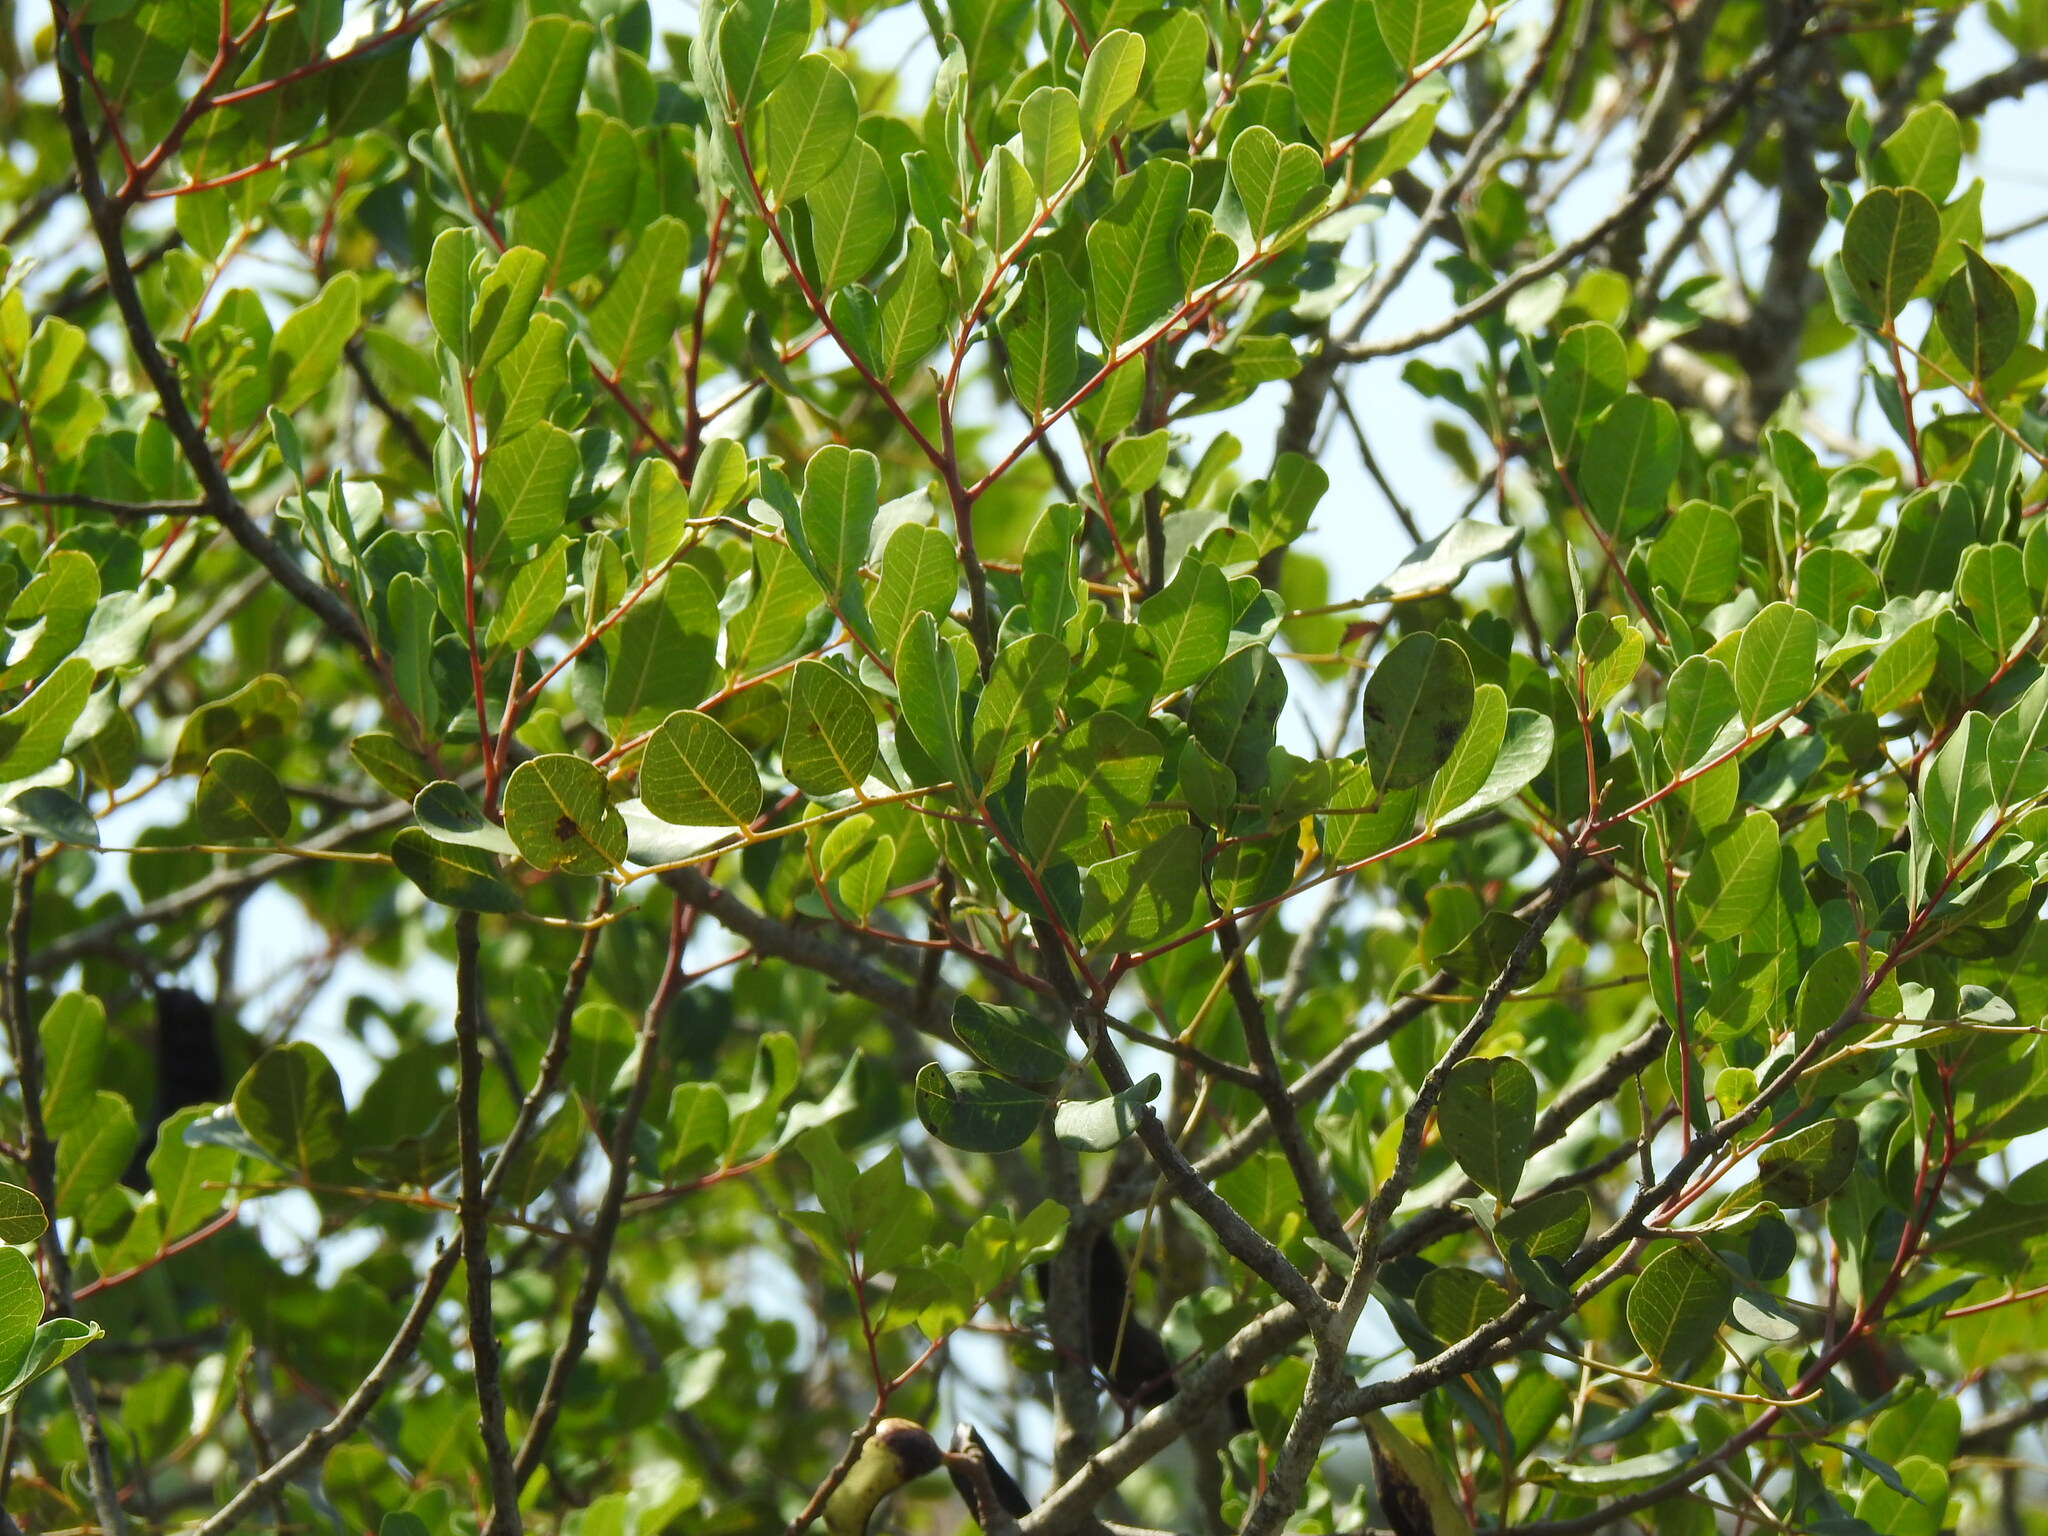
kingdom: Plantae
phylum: Tracheophyta
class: Magnoliopsida
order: Fabales
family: Fabaceae
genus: Ceratonia
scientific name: Ceratonia siliqua
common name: Carob
